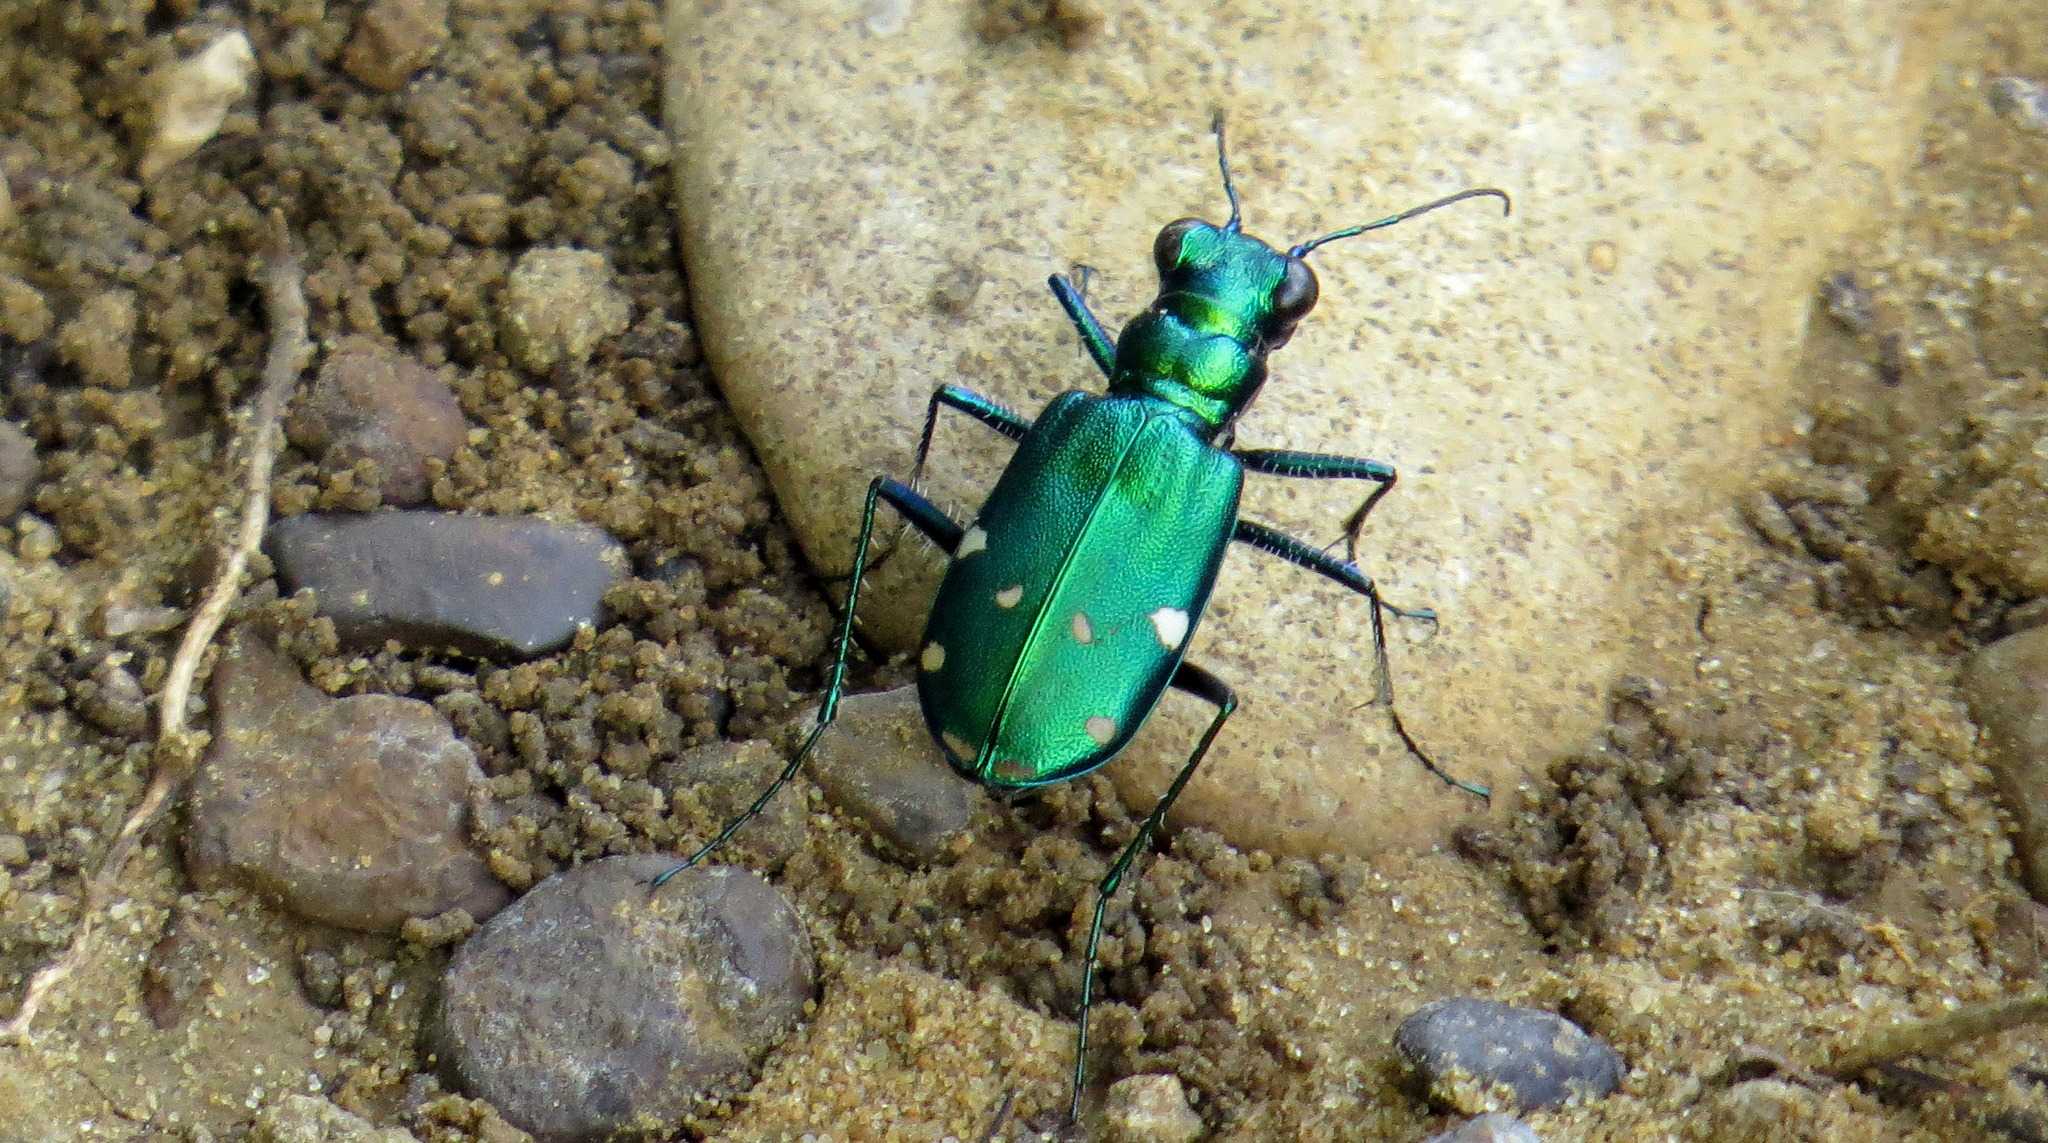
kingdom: Animalia
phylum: Arthropoda
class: Insecta
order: Coleoptera
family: Carabidae
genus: Cicindela
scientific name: Cicindela sexguttata
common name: Six-spotted tiger beetle
